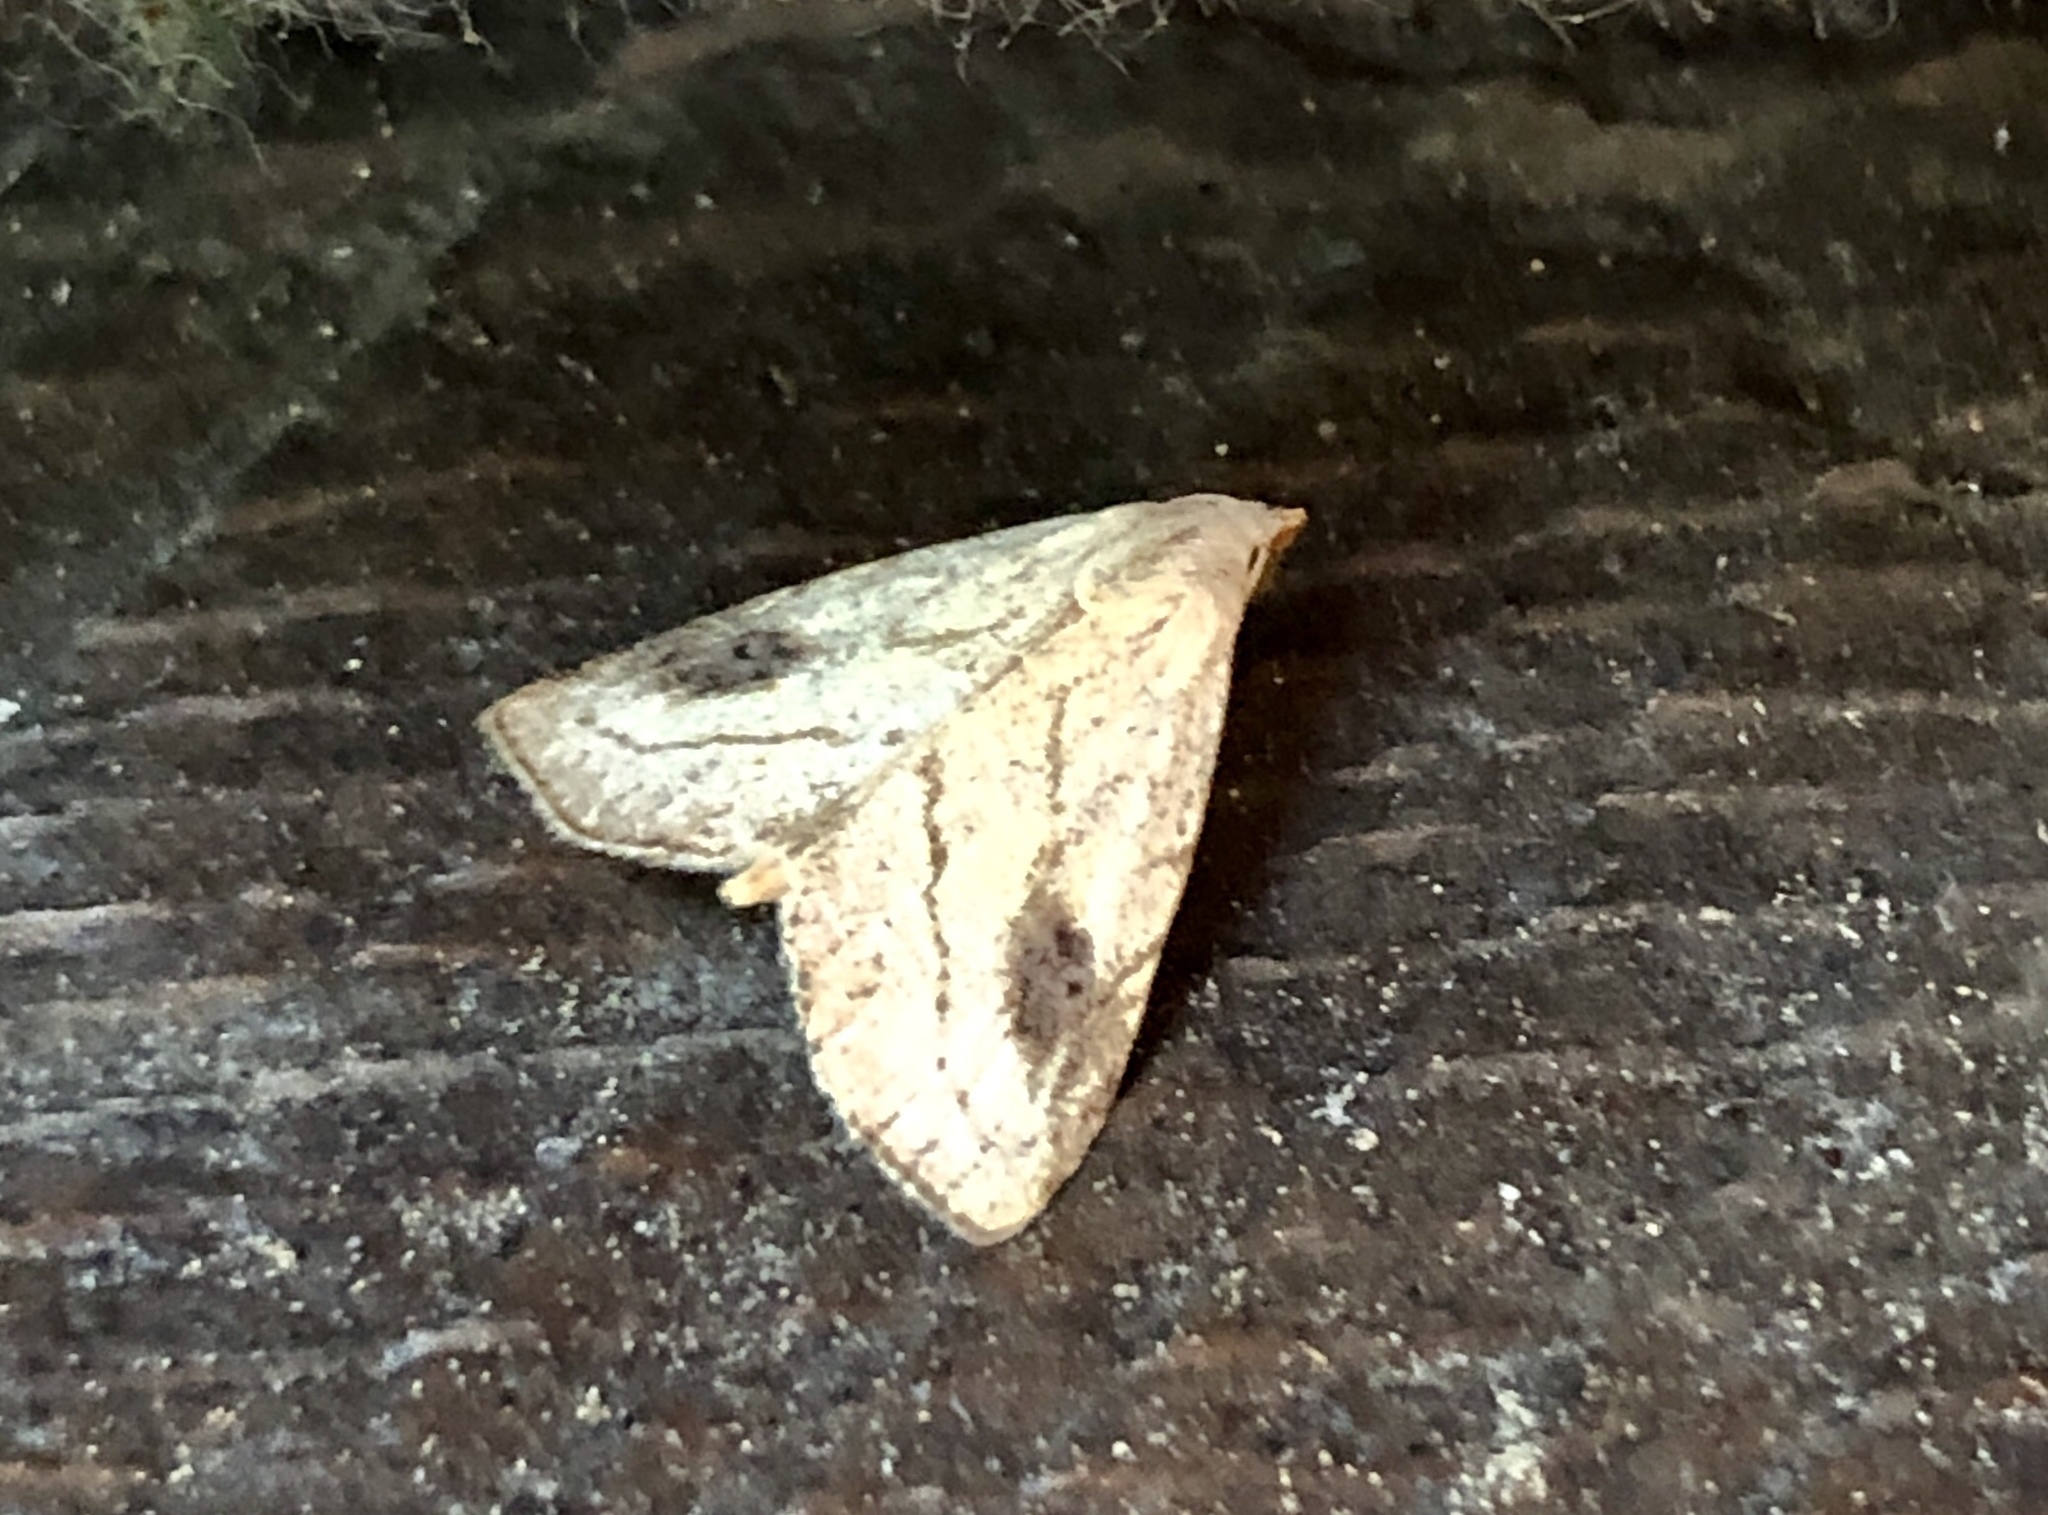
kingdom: Animalia
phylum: Arthropoda
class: Insecta
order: Lepidoptera
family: Erebidae
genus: Rivula
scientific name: Rivula propinqualis
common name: Spotted grass moth
